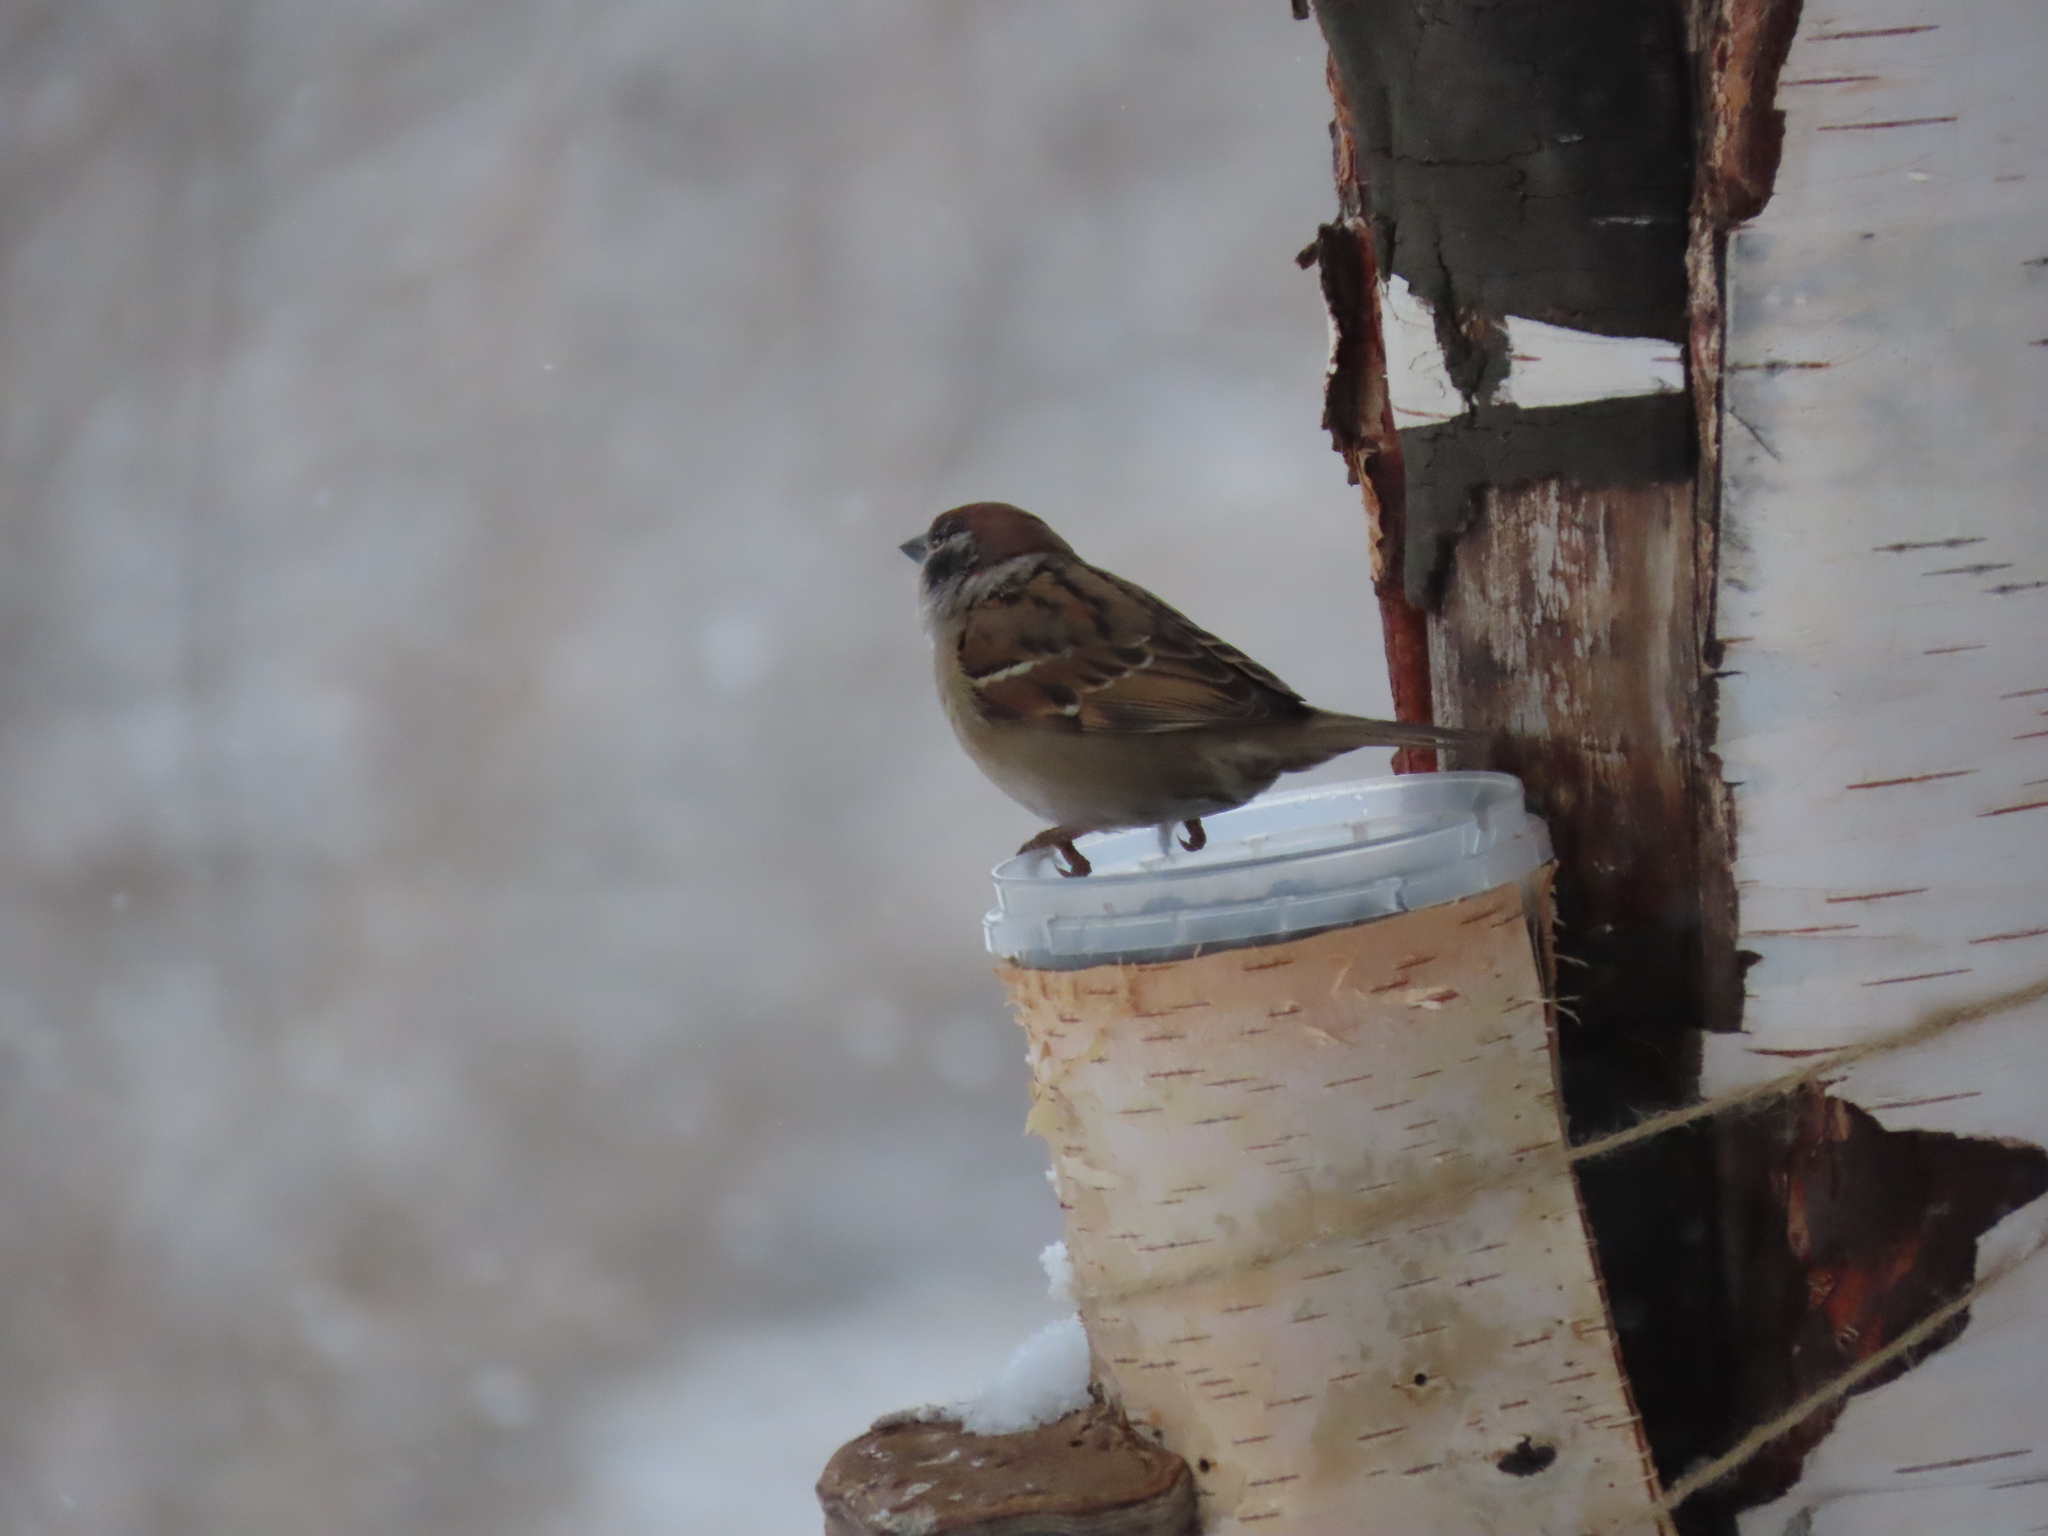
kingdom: Animalia
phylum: Chordata
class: Aves
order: Passeriformes
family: Passeridae
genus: Passer
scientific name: Passer montanus
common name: Eurasian tree sparrow
